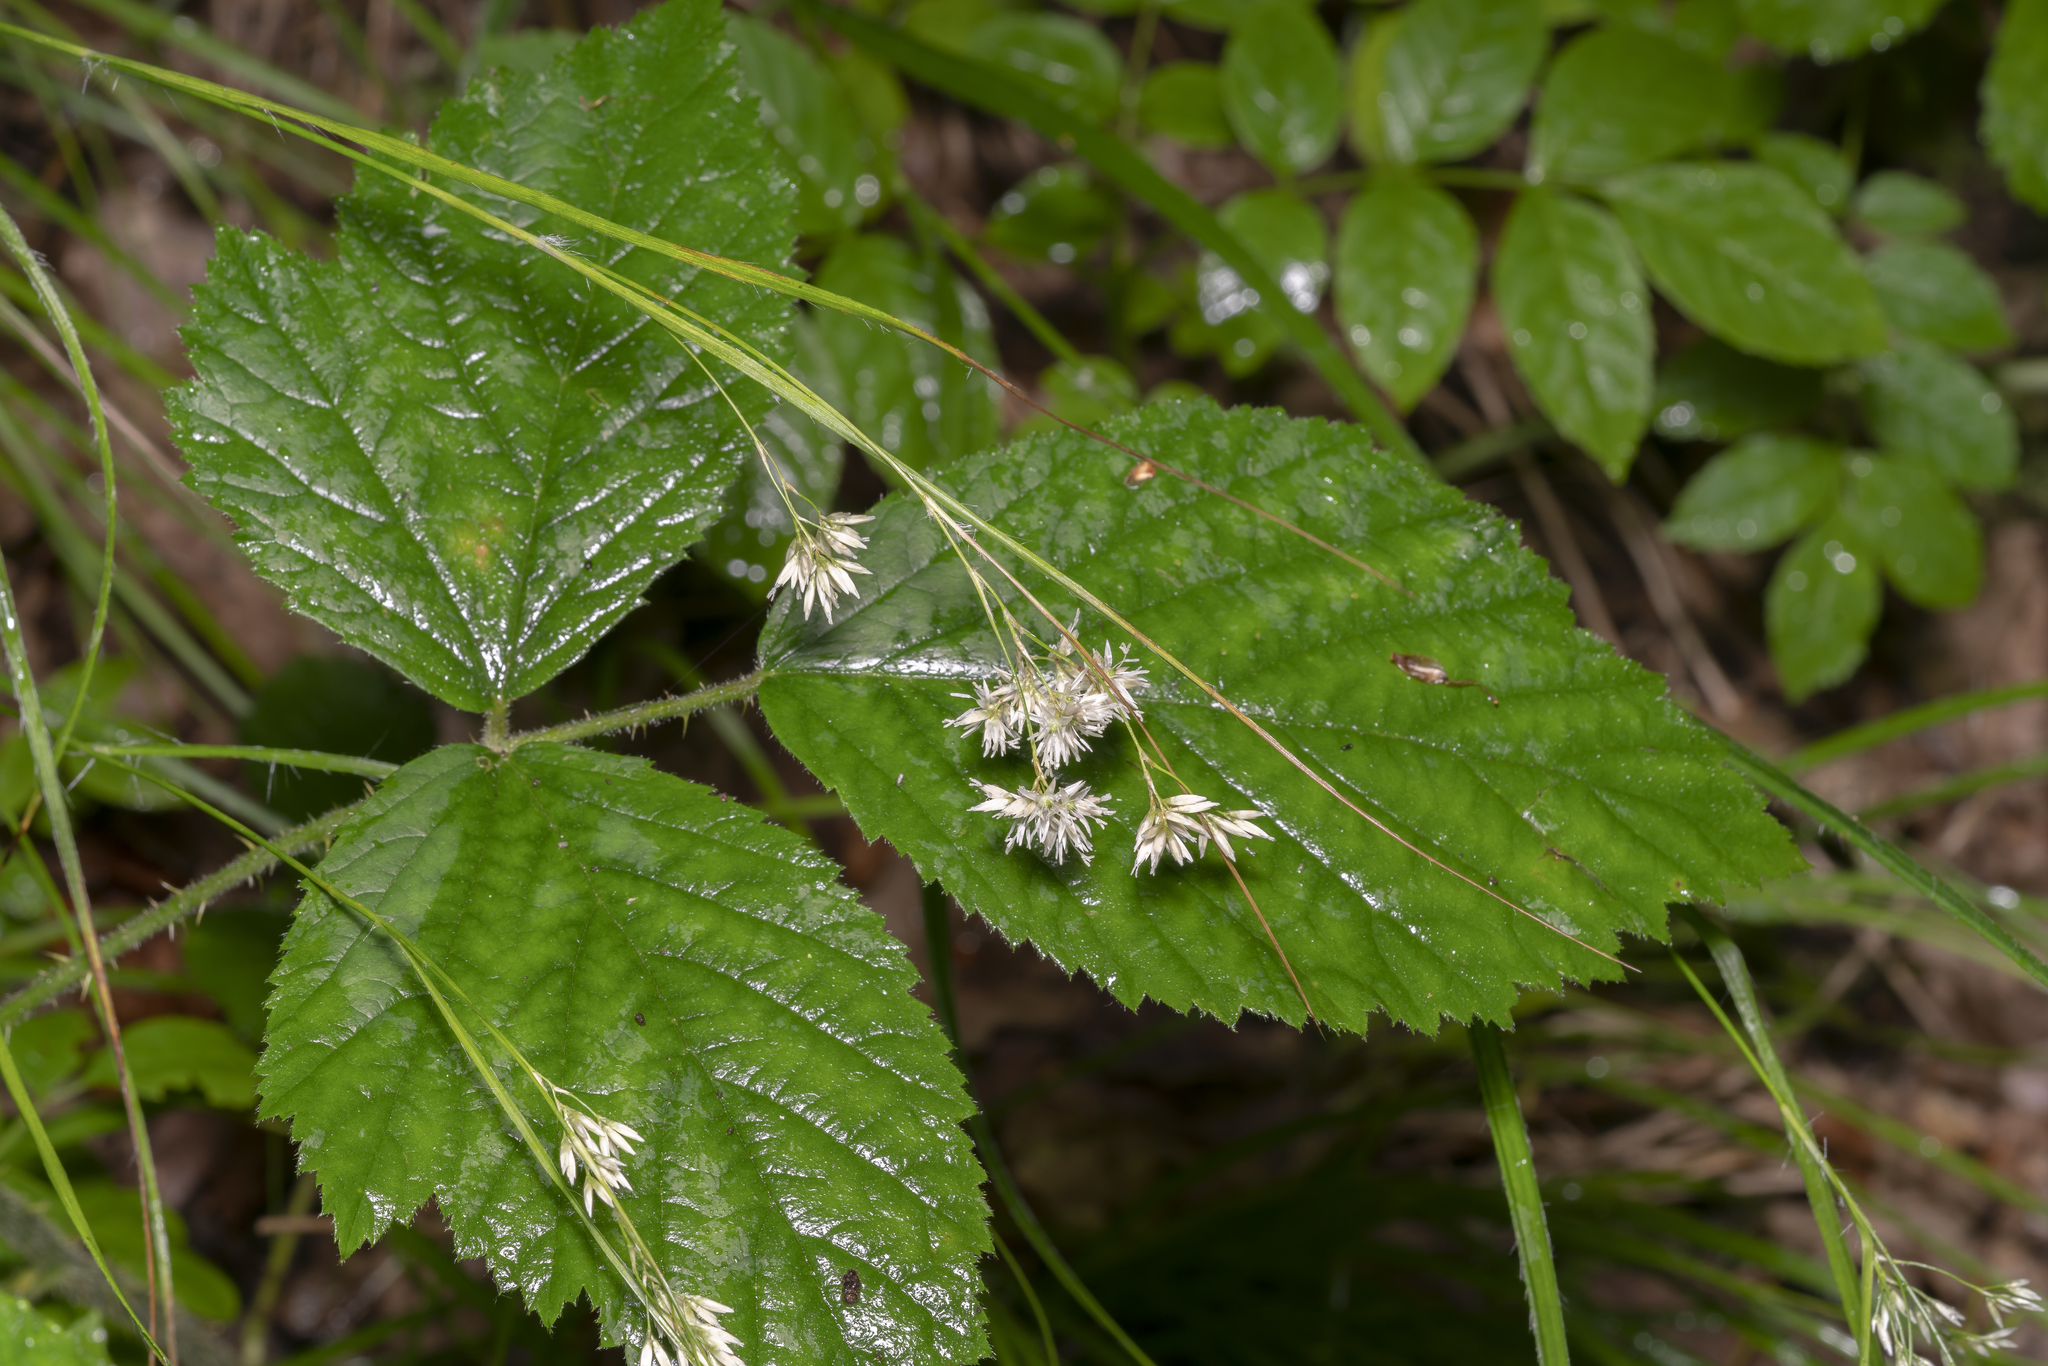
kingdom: Plantae
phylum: Tracheophyta
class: Liliopsida
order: Poales
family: Juncaceae
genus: Luzula
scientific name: Luzula nivea
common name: Snow-white wood-rush
